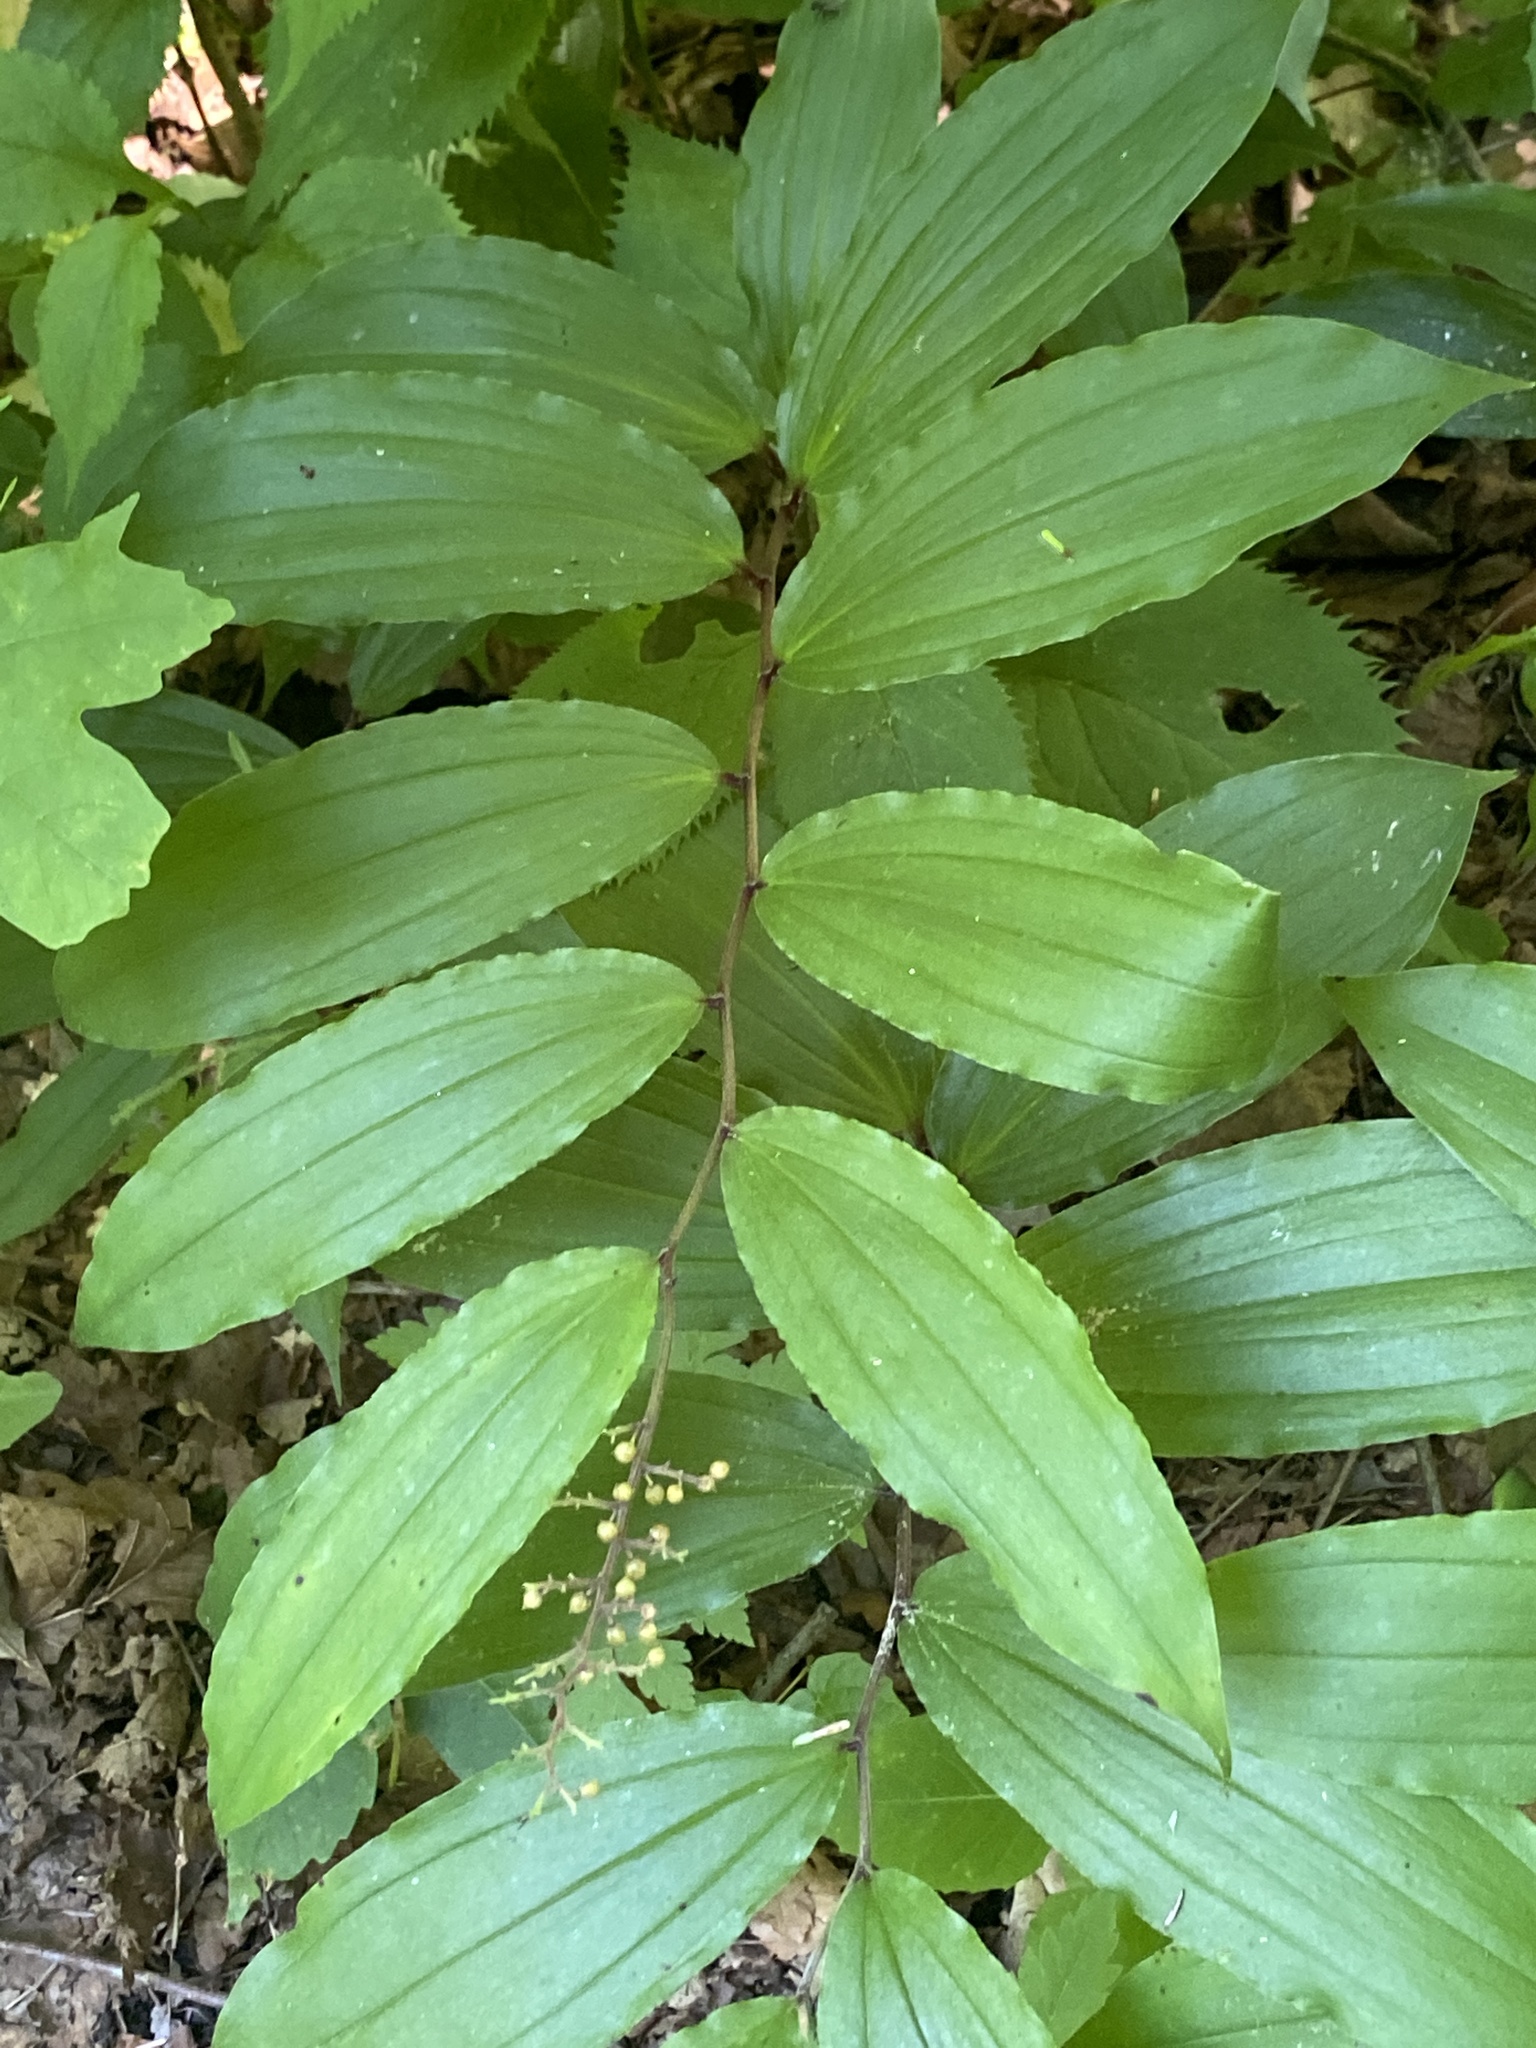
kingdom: Plantae
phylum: Tracheophyta
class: Liliopsida
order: Asparagales
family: Asparagaceae
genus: Maianthemum
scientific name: Maianthemum racemosum
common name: False spikenard
